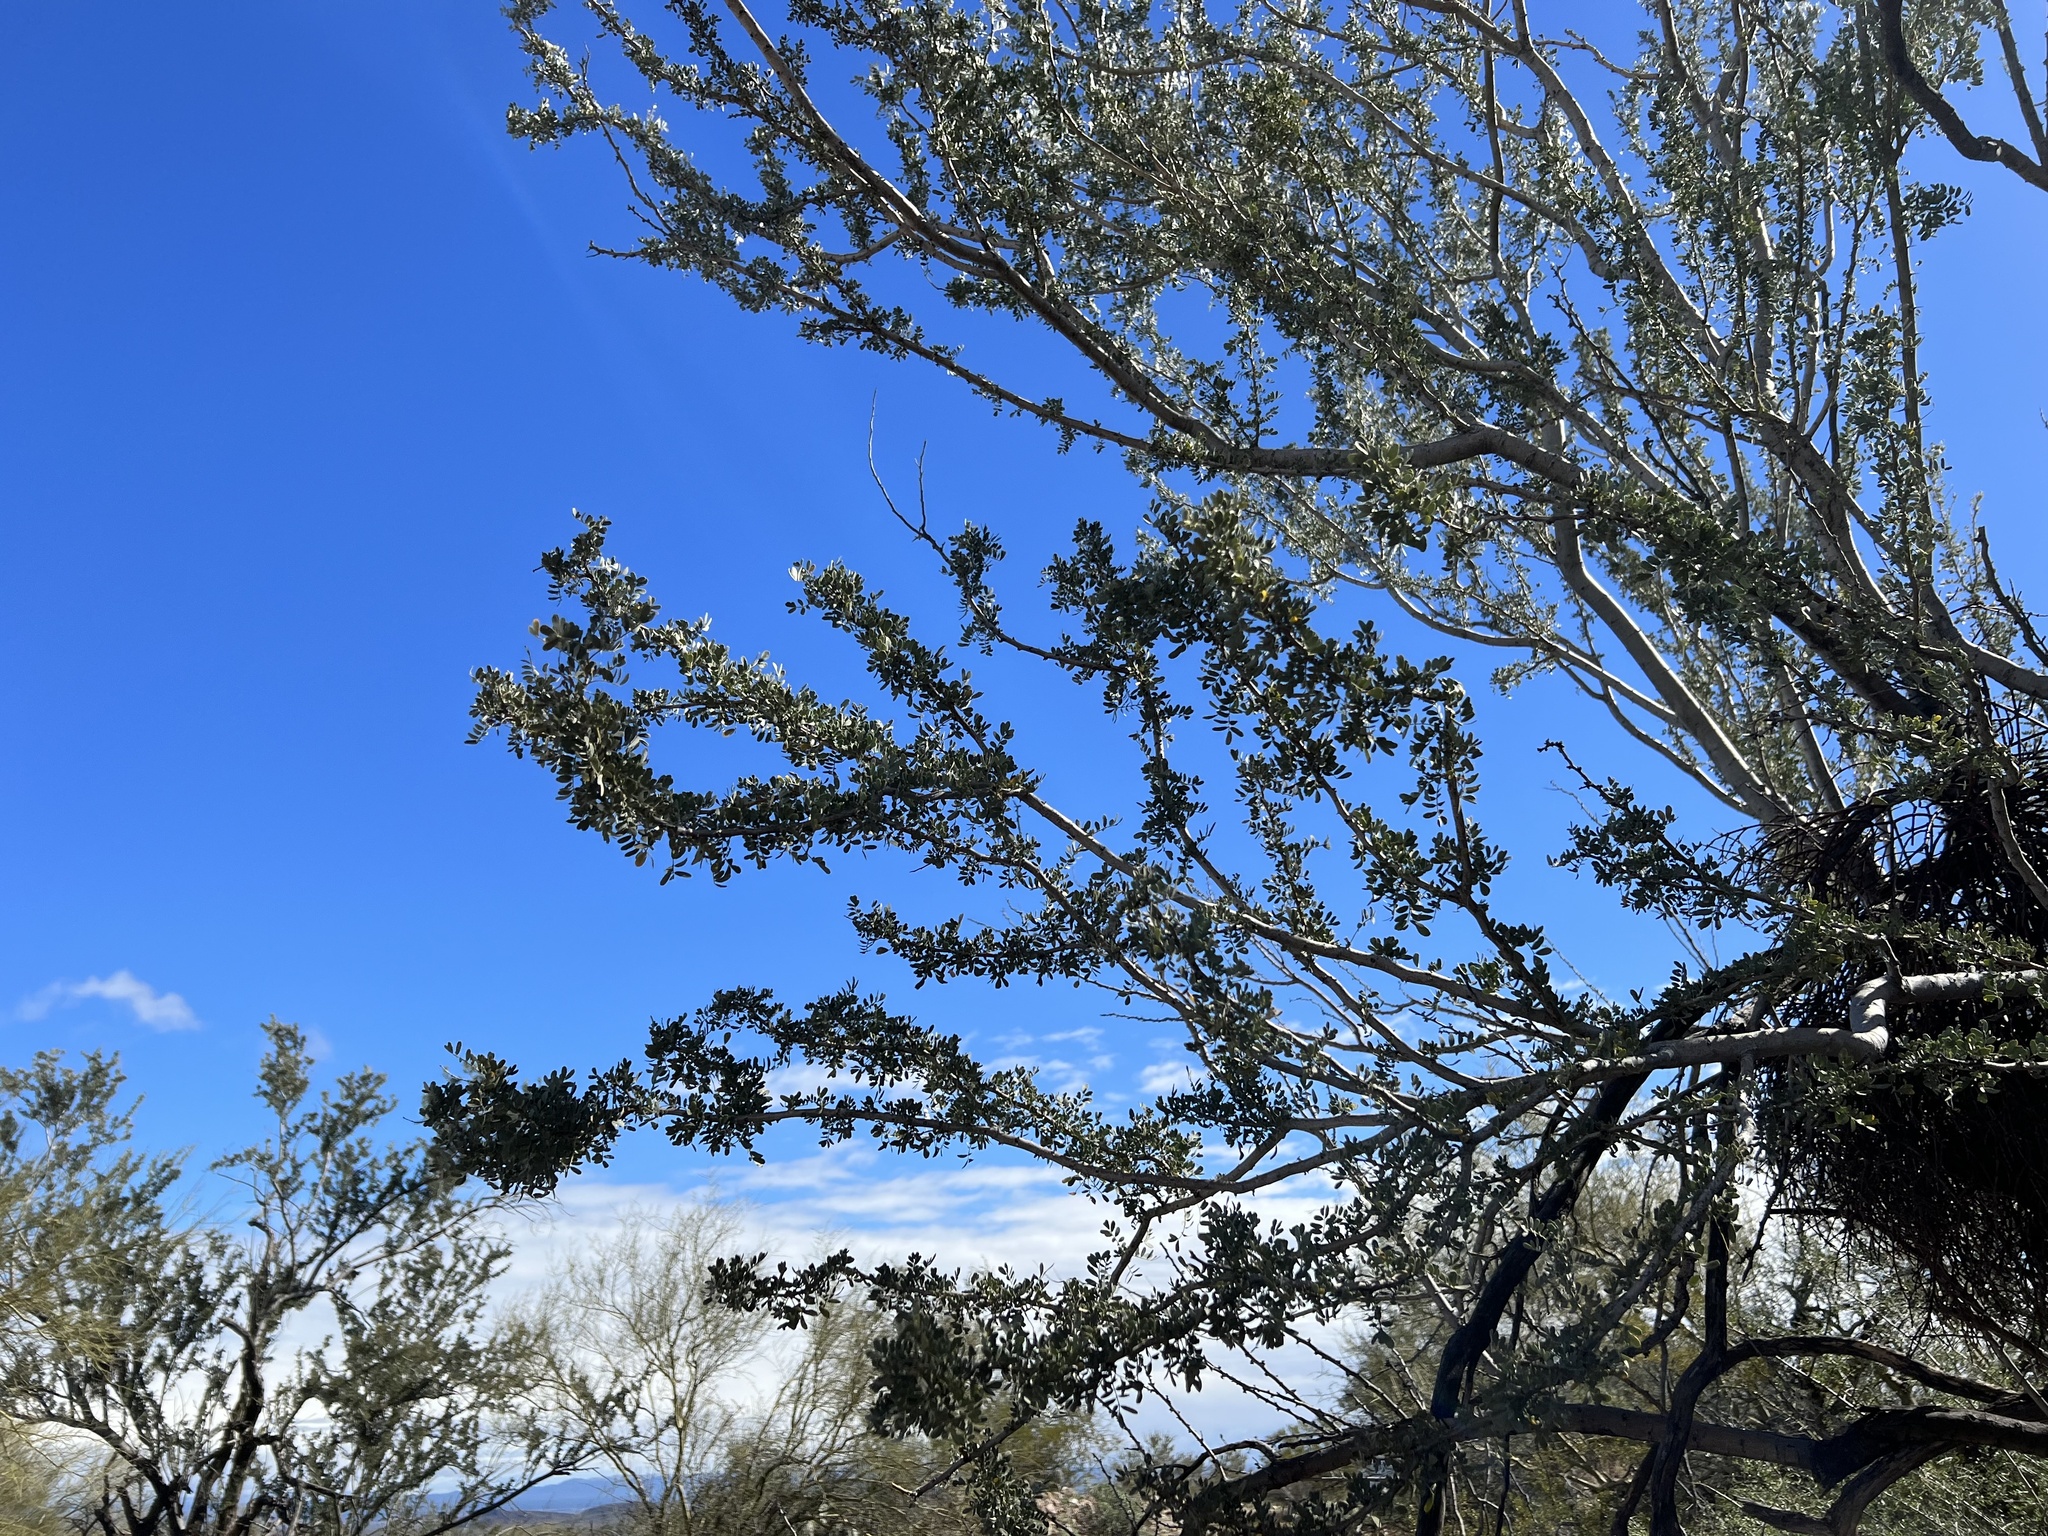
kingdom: Plantae
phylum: Tracheophyta
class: Magnoliopsida
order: Fabales
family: Fabaceae
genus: Olneya
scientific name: Olneya tesota
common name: Desert ironwood
